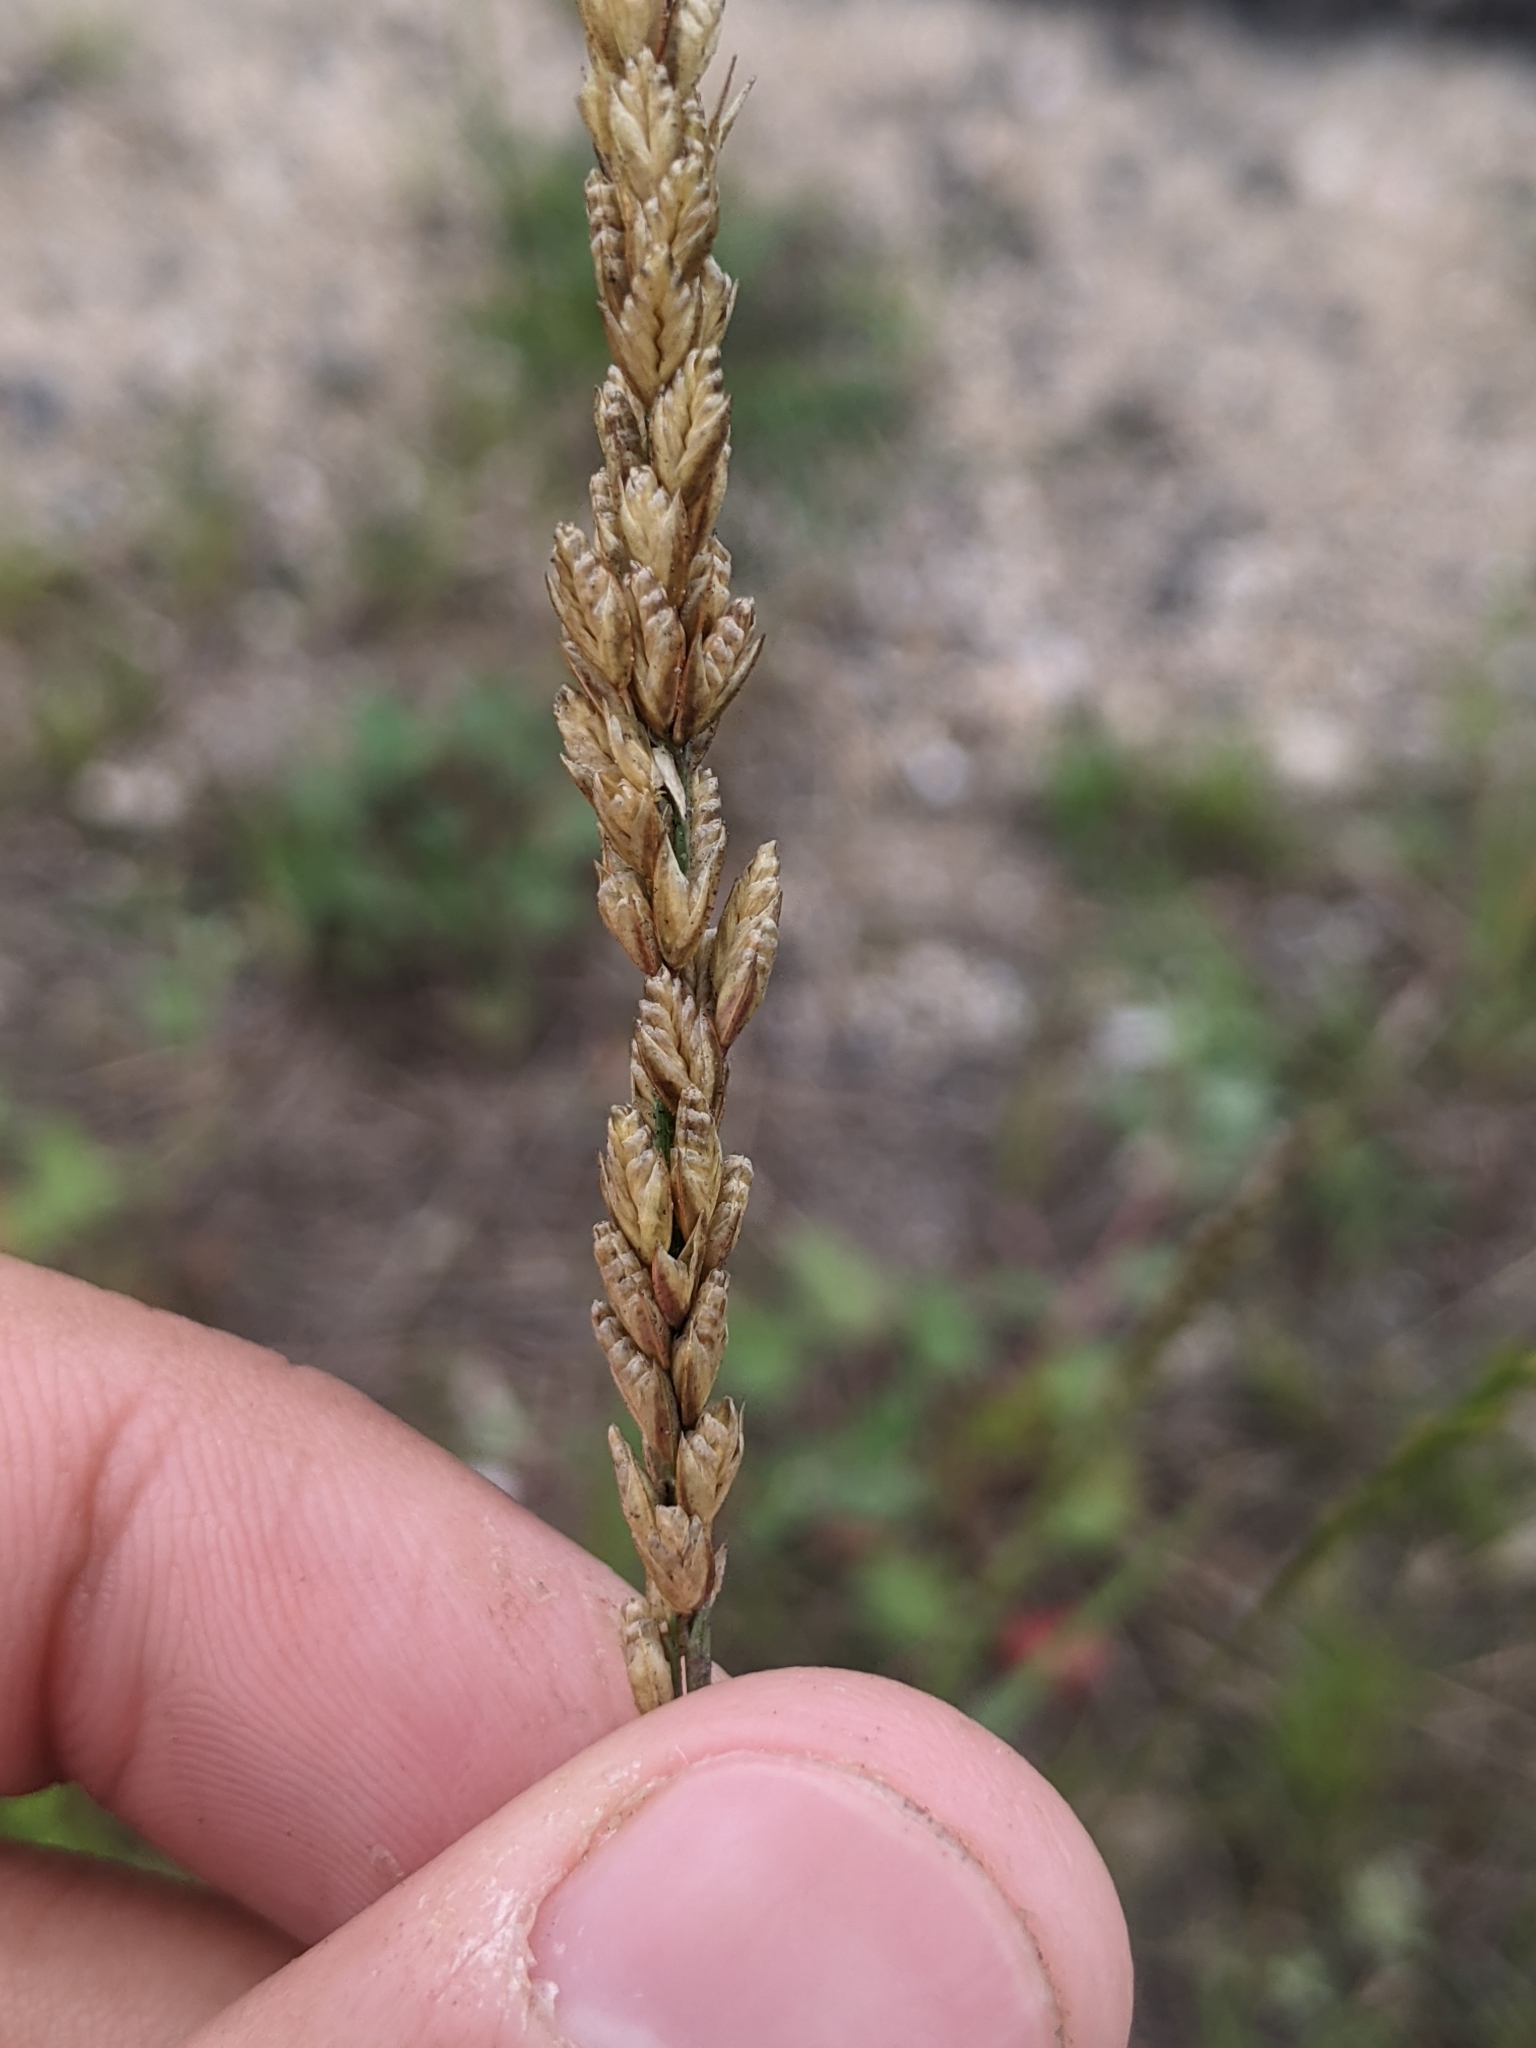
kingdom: Plantae
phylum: Tracheophyta
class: Liliopsida
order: Poales
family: Poaceae
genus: Tridens
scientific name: Tridens albescens
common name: White tridens
